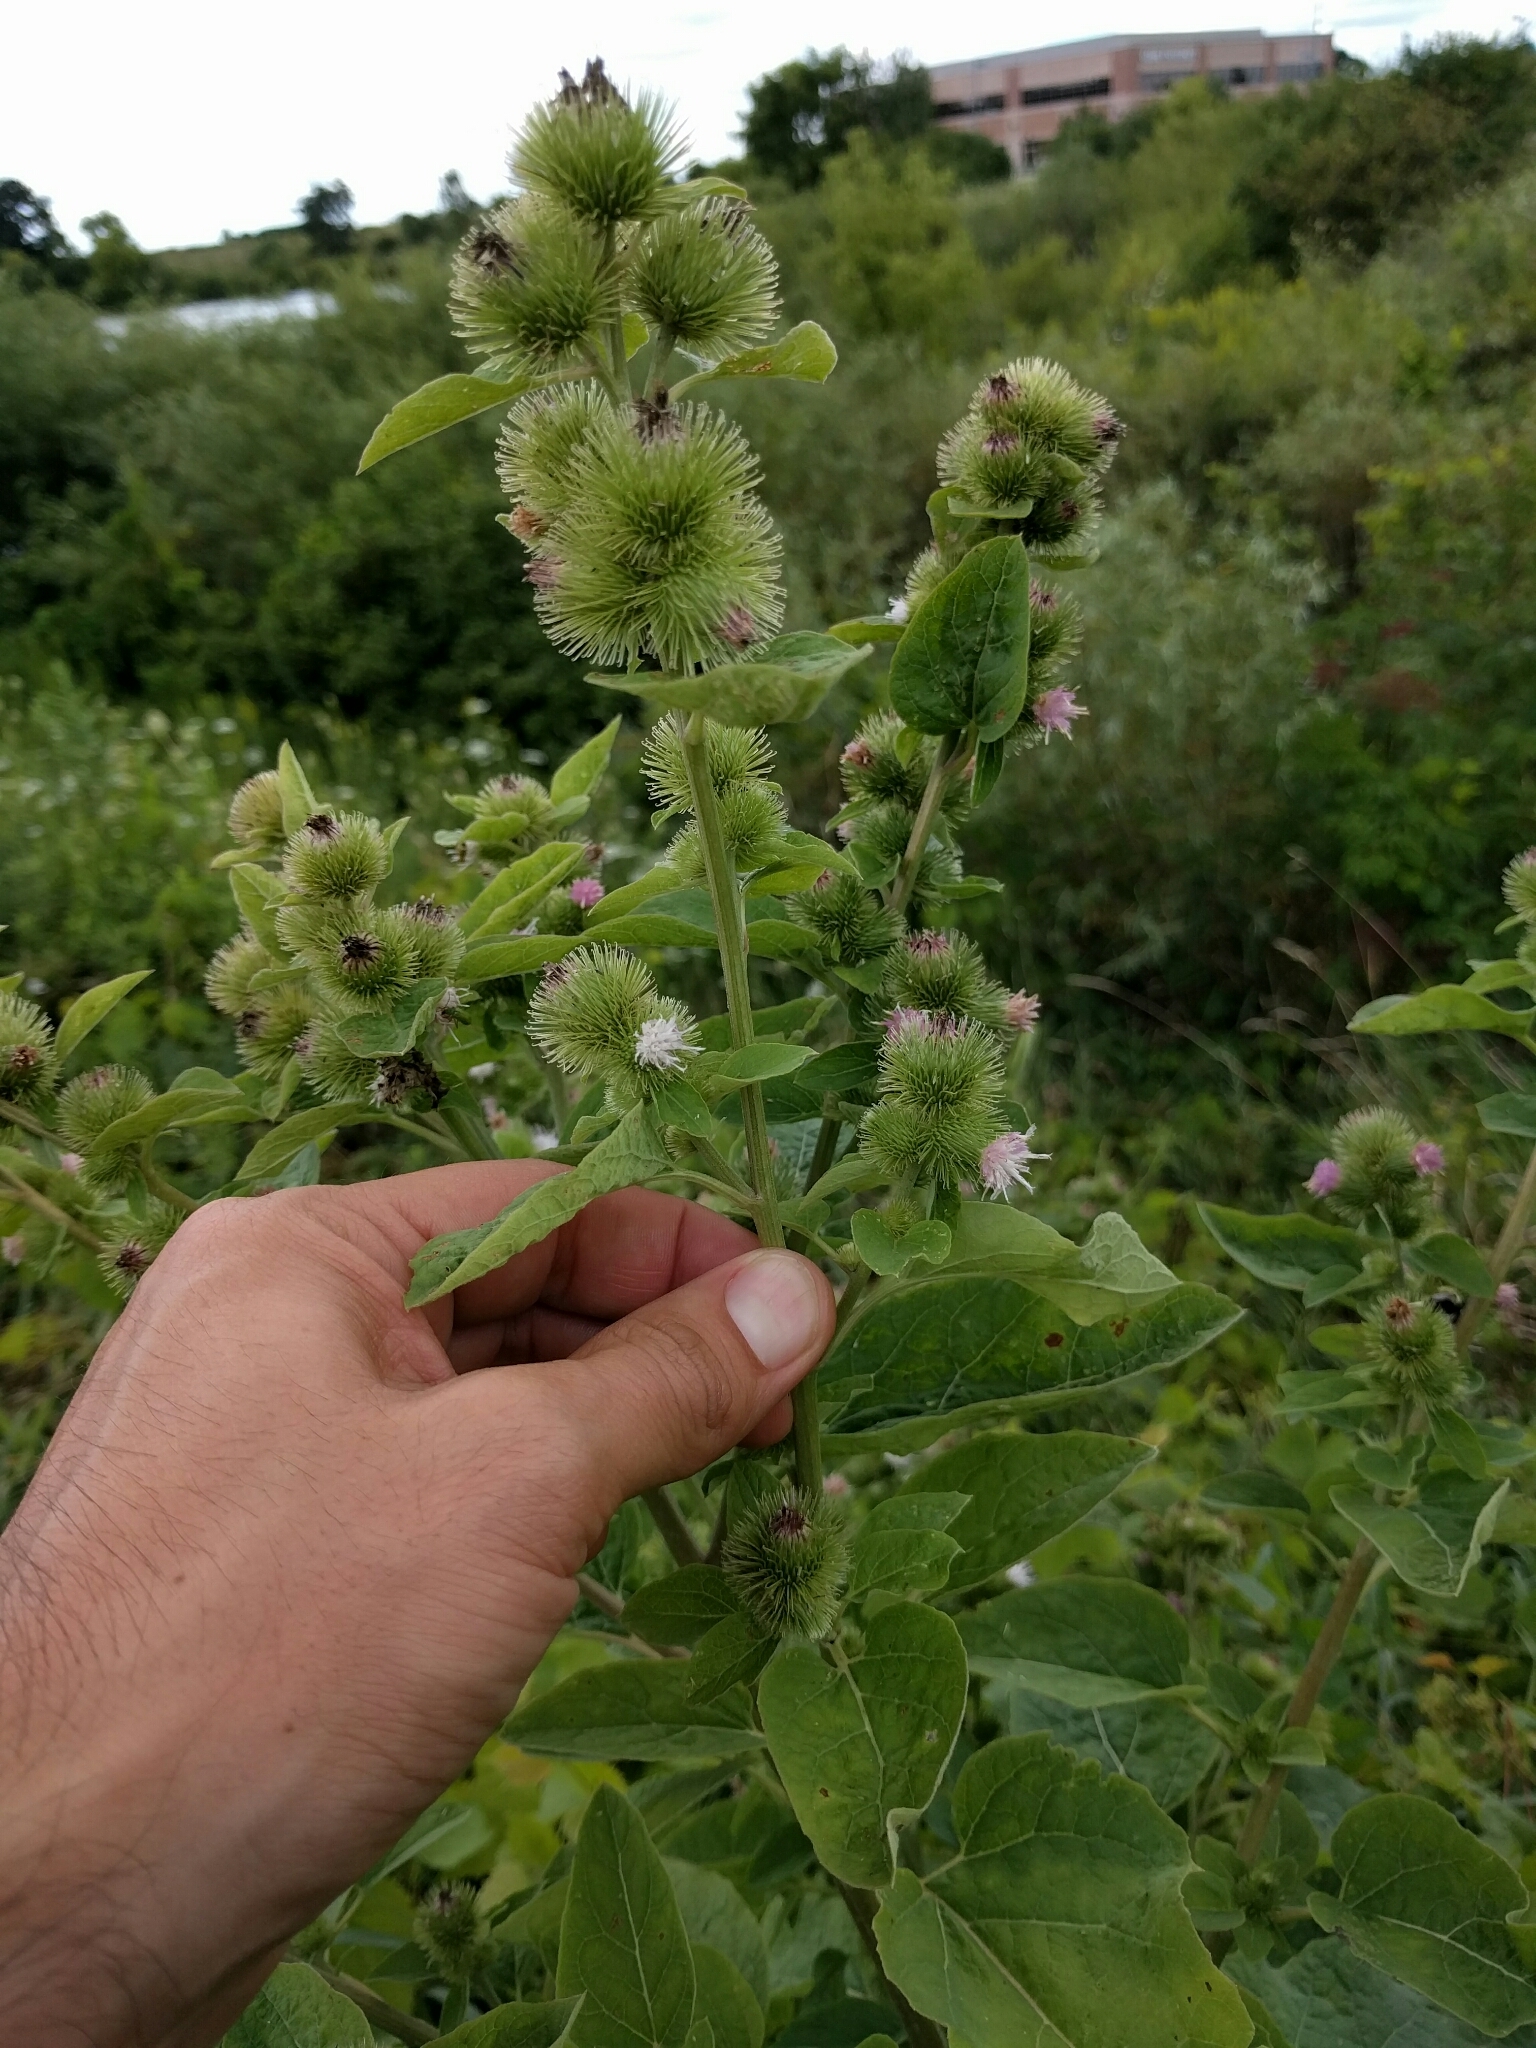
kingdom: Plantae
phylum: Tracheophyta
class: Magnoliopsida
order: Asterales
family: Asteraceae
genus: Arctium
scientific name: Arctium minus
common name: Lesser burdock
